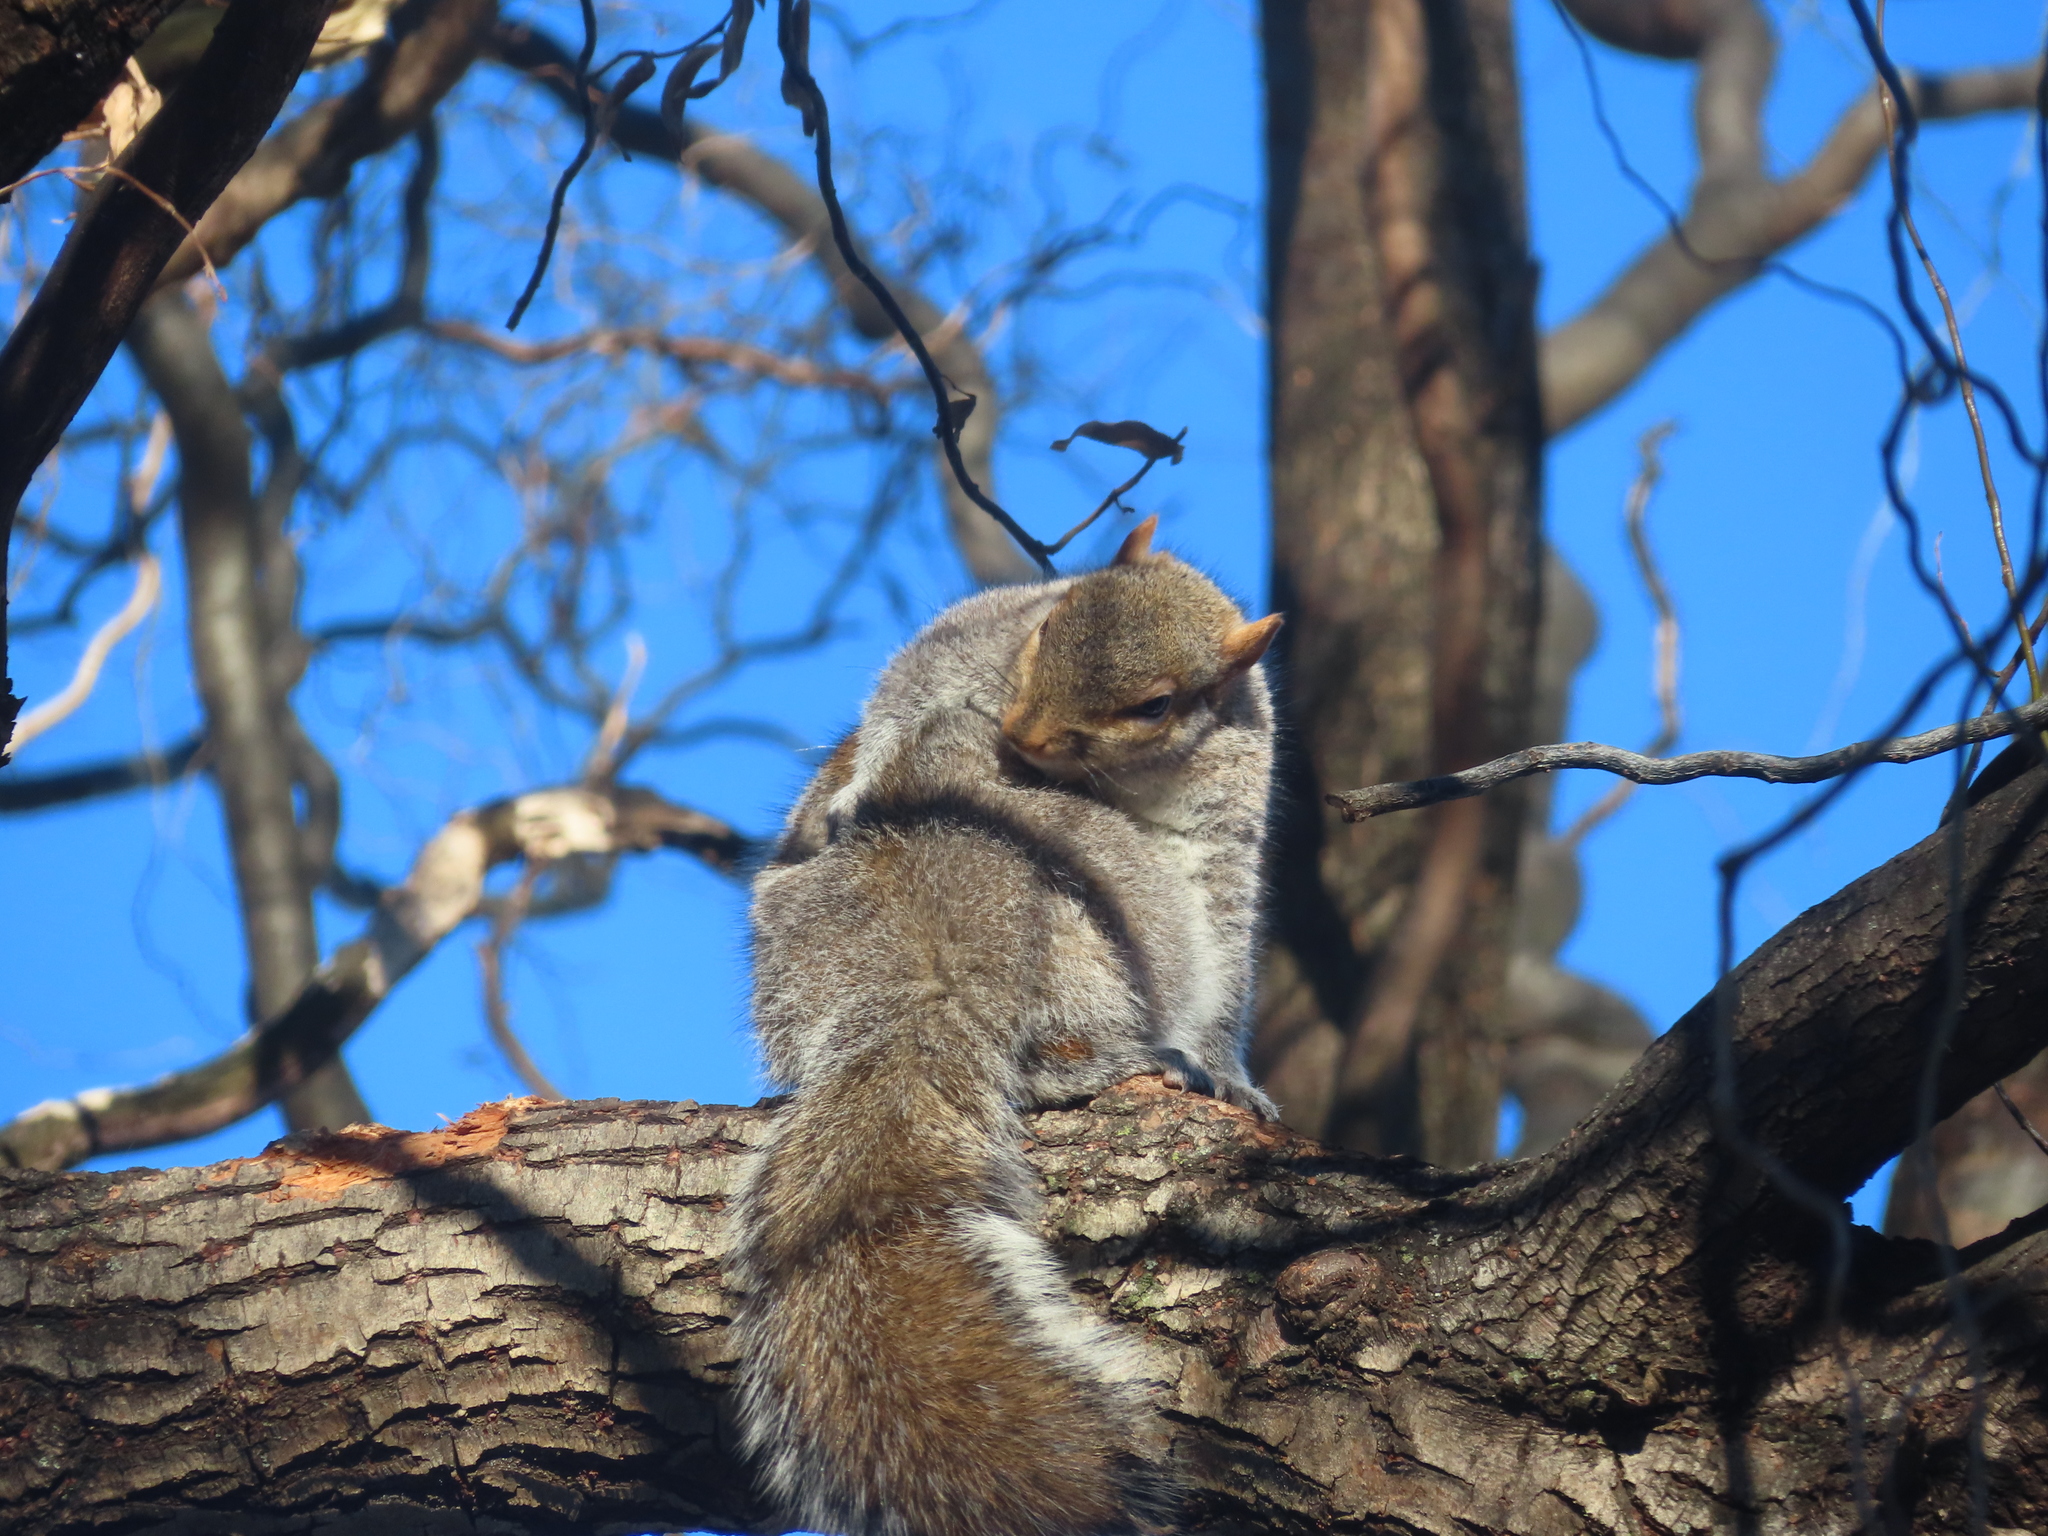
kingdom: Animalia
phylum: Chordata
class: Mammalia
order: Rodentia
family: Sciuridae
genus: Sciurus
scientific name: Sciurus carolinensis
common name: Eastern gray squirrel
